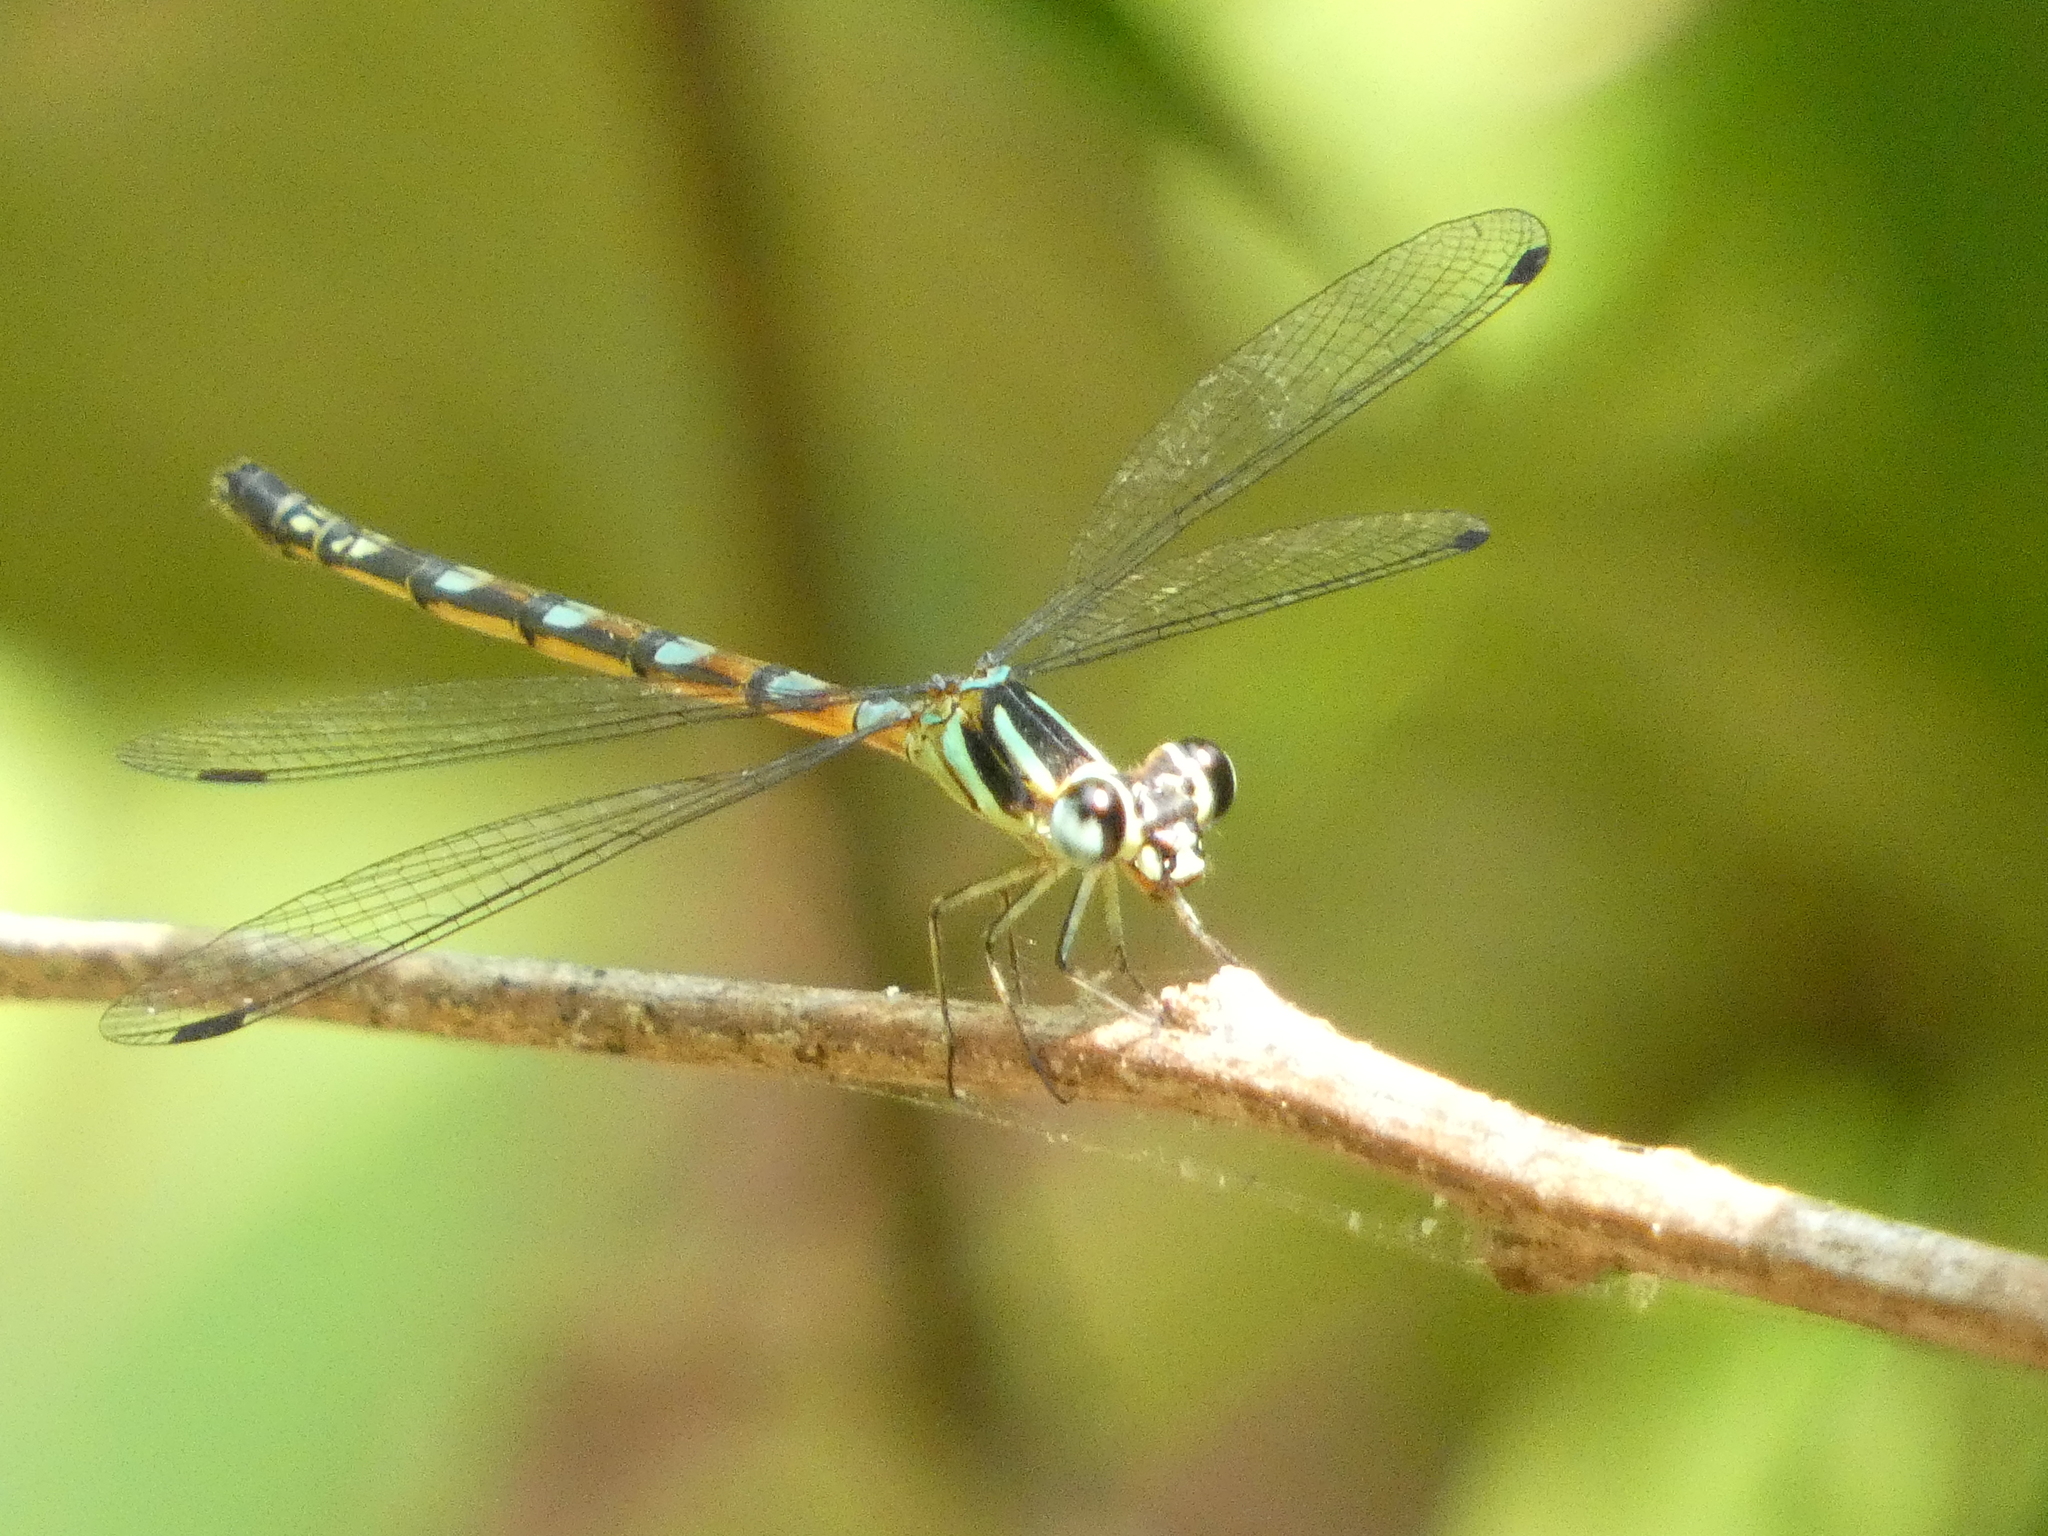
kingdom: Animalia
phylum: Arthropoda
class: Insecta
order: Odonata
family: Philosinidae
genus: Rhinagrion
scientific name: Rhinagrion viridatum
